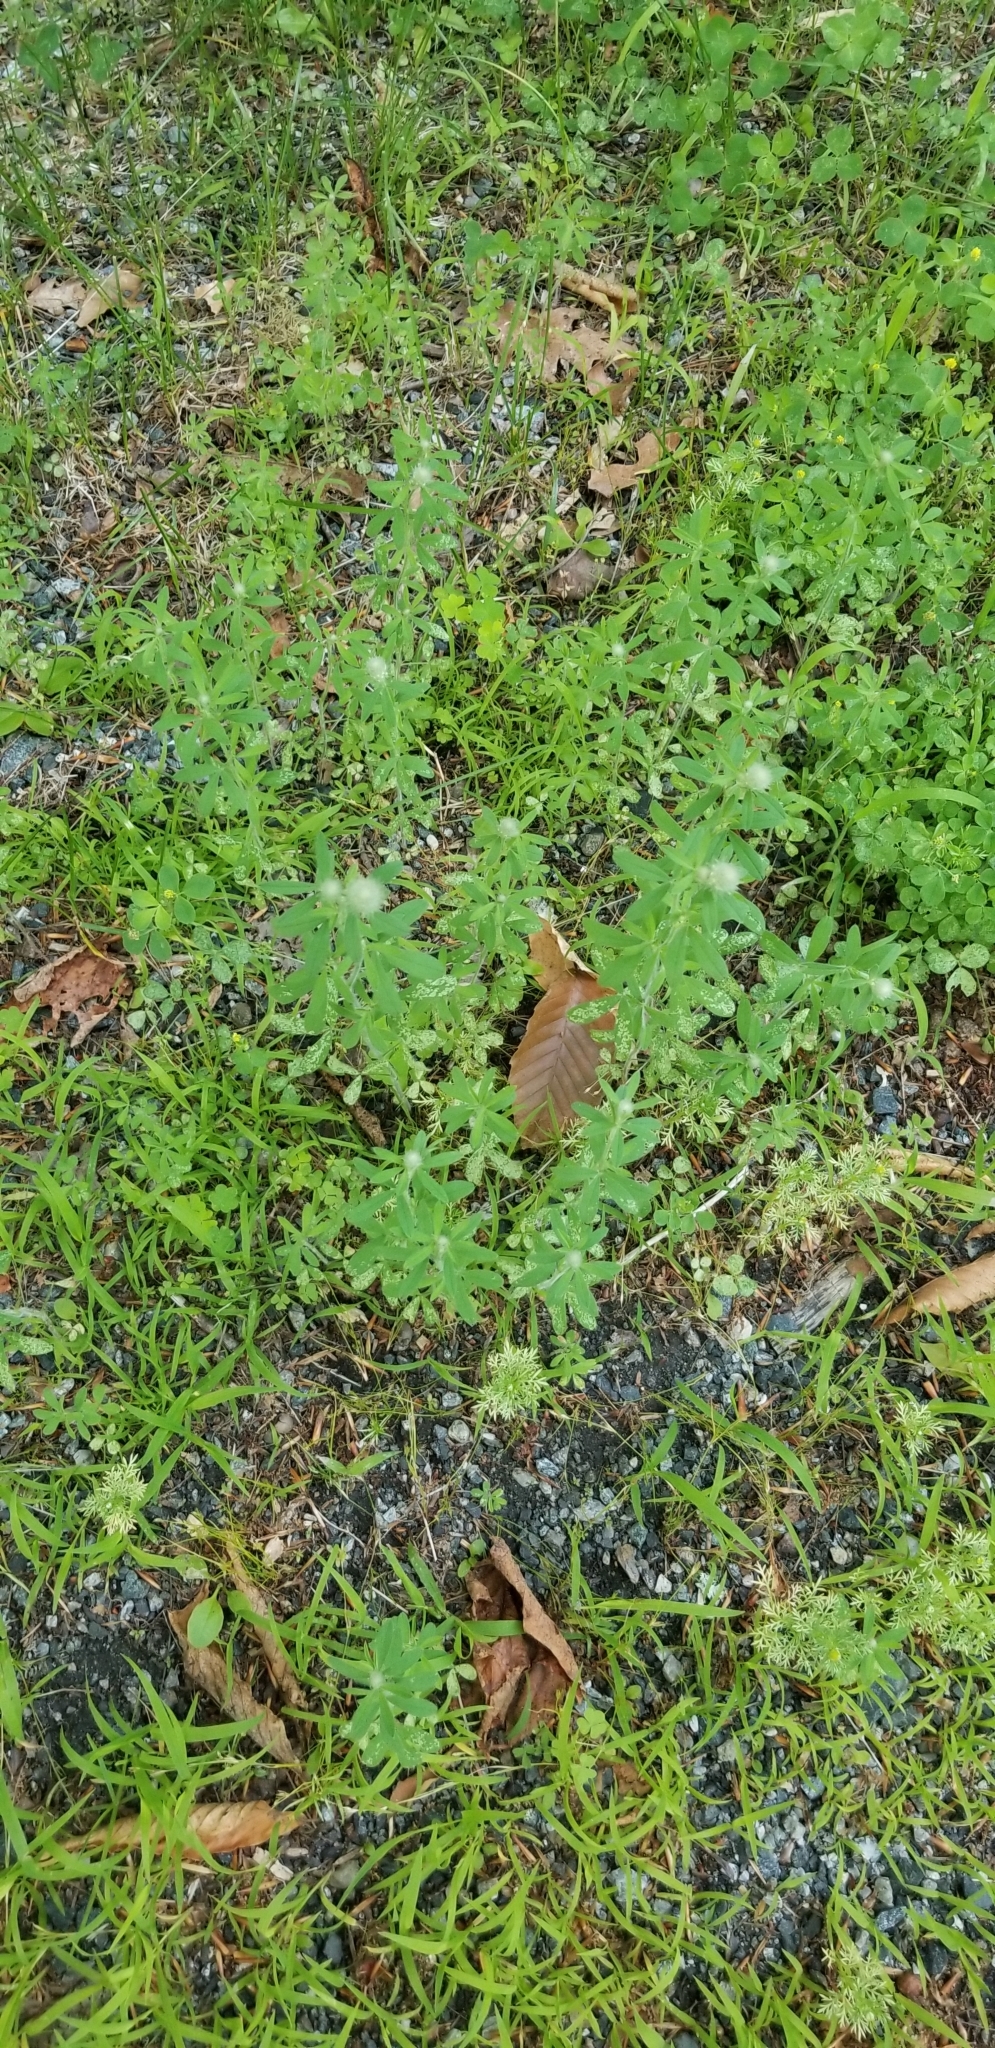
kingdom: Plantae
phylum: Tracheophyta
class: Magnoliopsida
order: Fabales
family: Fabaceae
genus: Trifolium
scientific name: Trifolium arvense
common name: Hare's-foot clover
